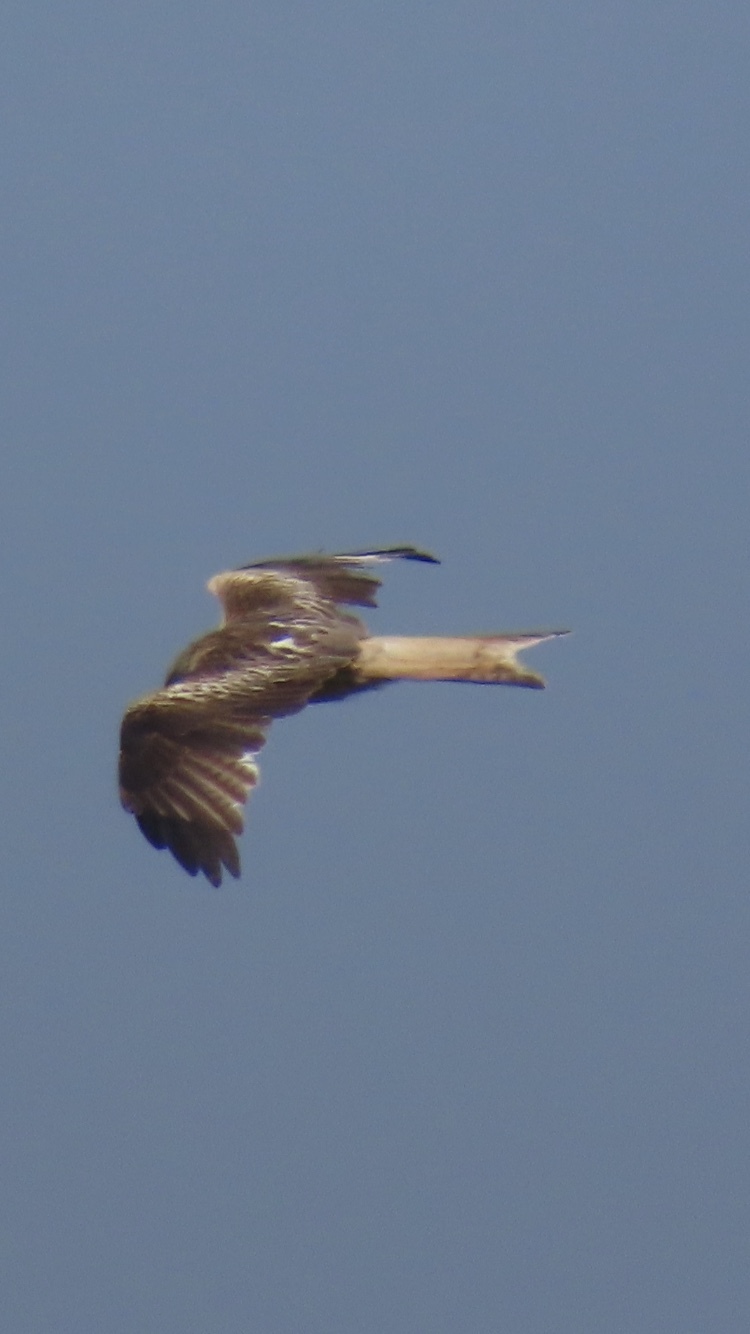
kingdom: Animalia
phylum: Chordata
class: Aves
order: Accipitriformes
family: Accipitridae
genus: Milvus
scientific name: Milvus milvus
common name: Red kite
